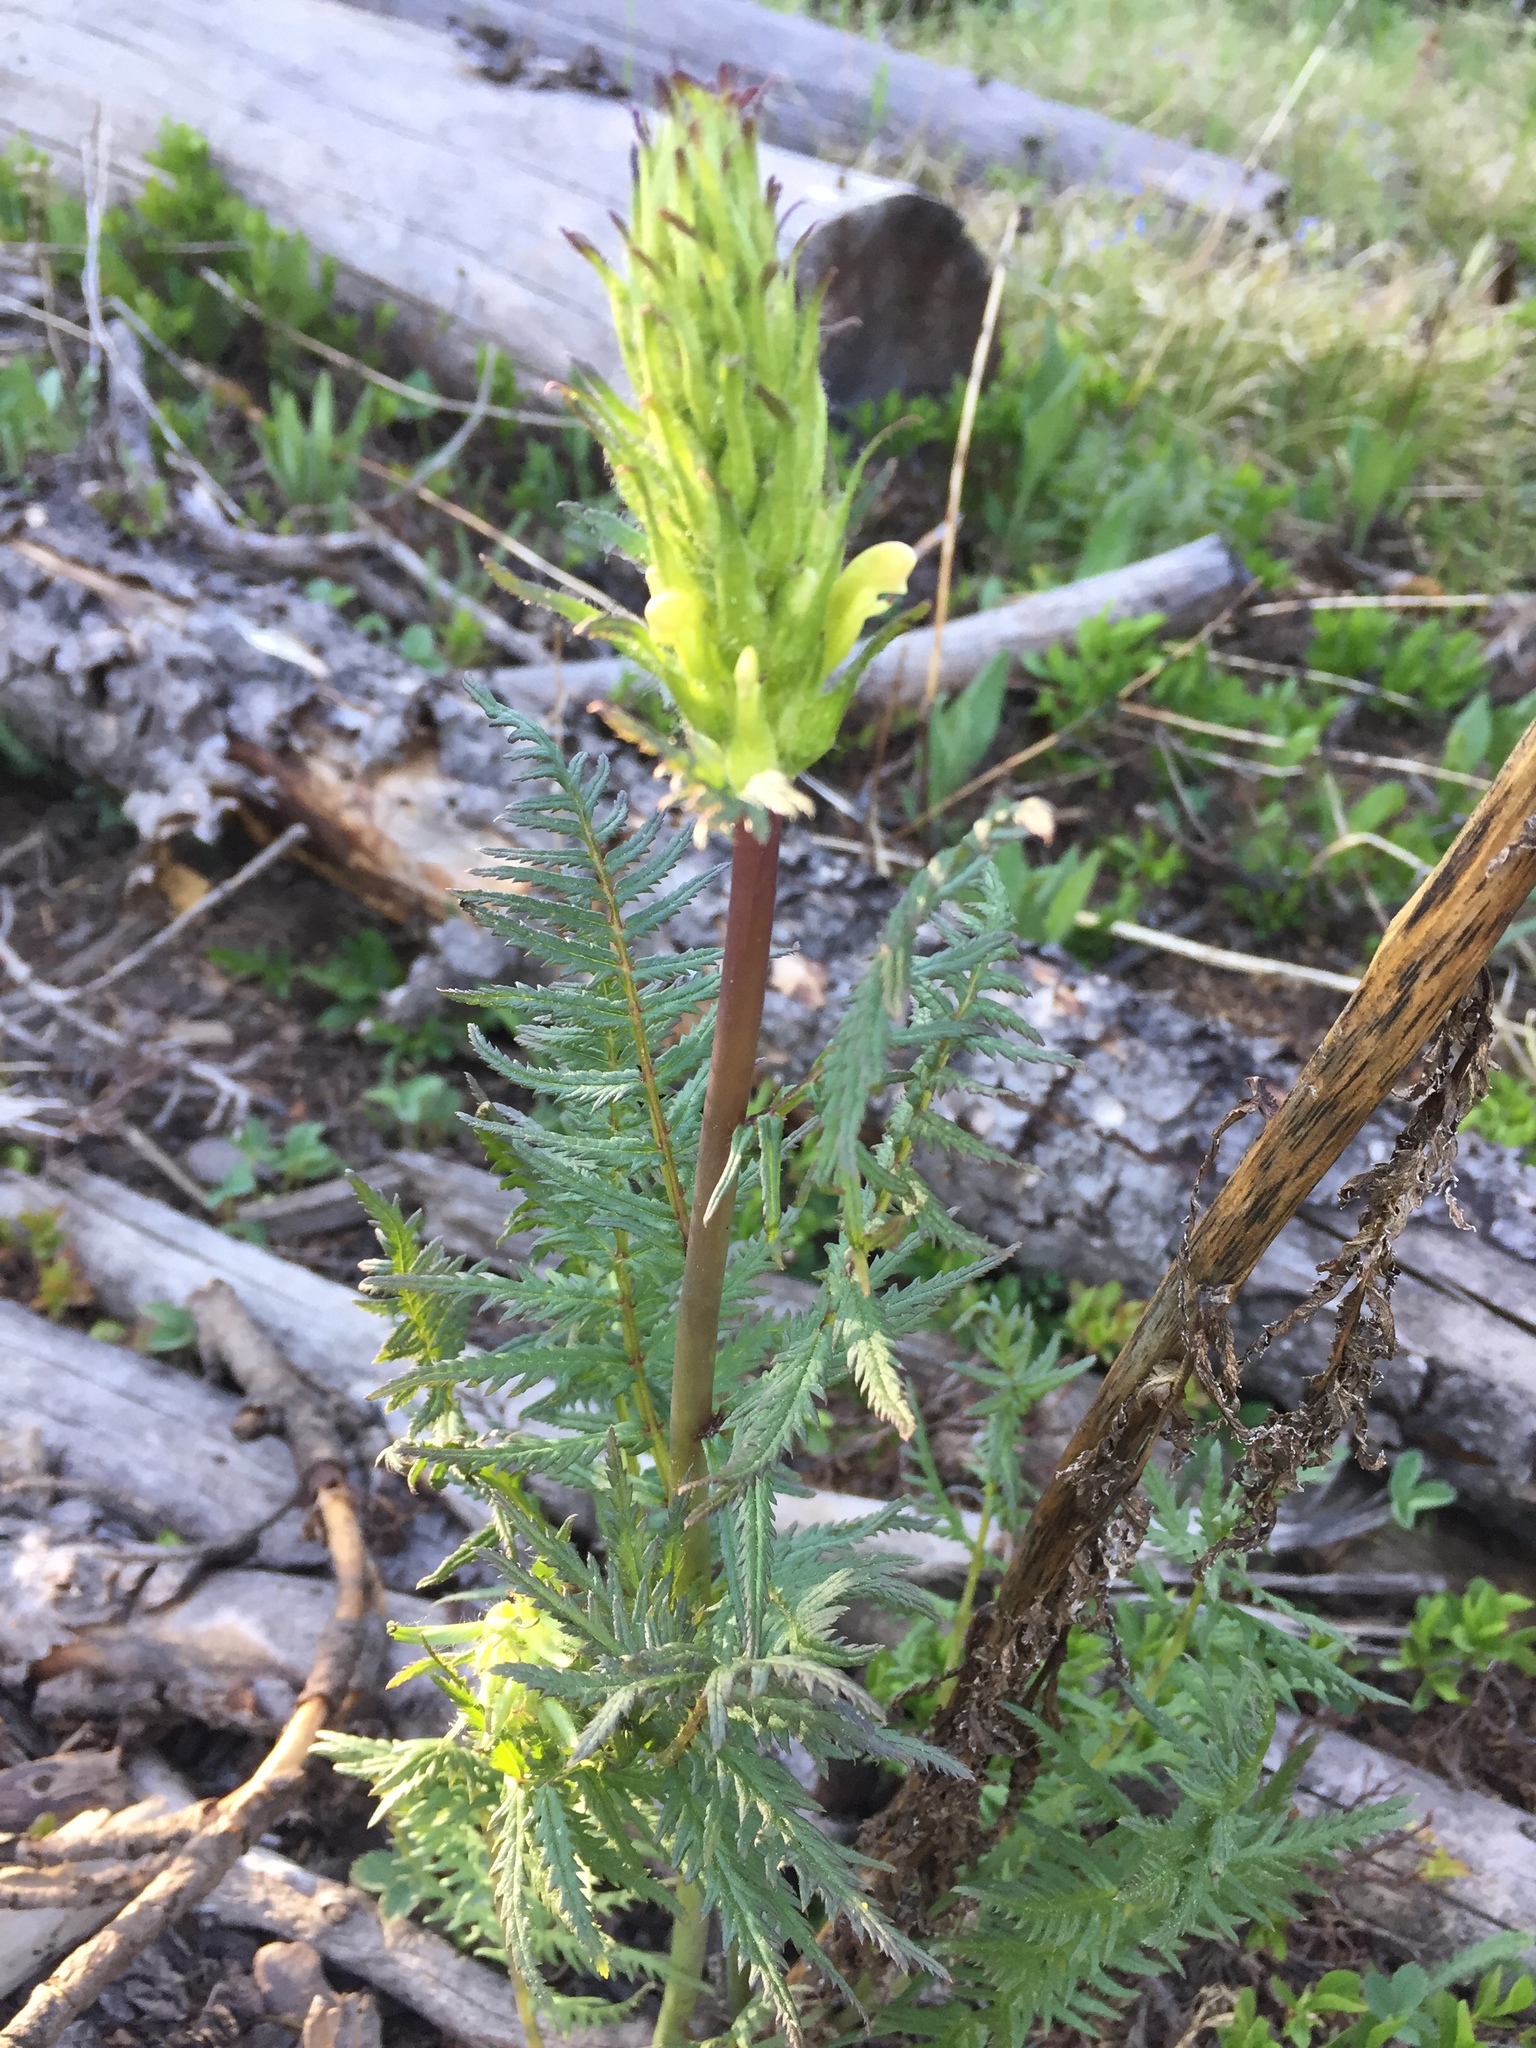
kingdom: Plantae
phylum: Tracheophyta
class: Magnoliopsida
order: Lamiales
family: Orobanchaceae
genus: Pedicularis
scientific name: Pedicularis bracteosa
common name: Bracted lousewort
